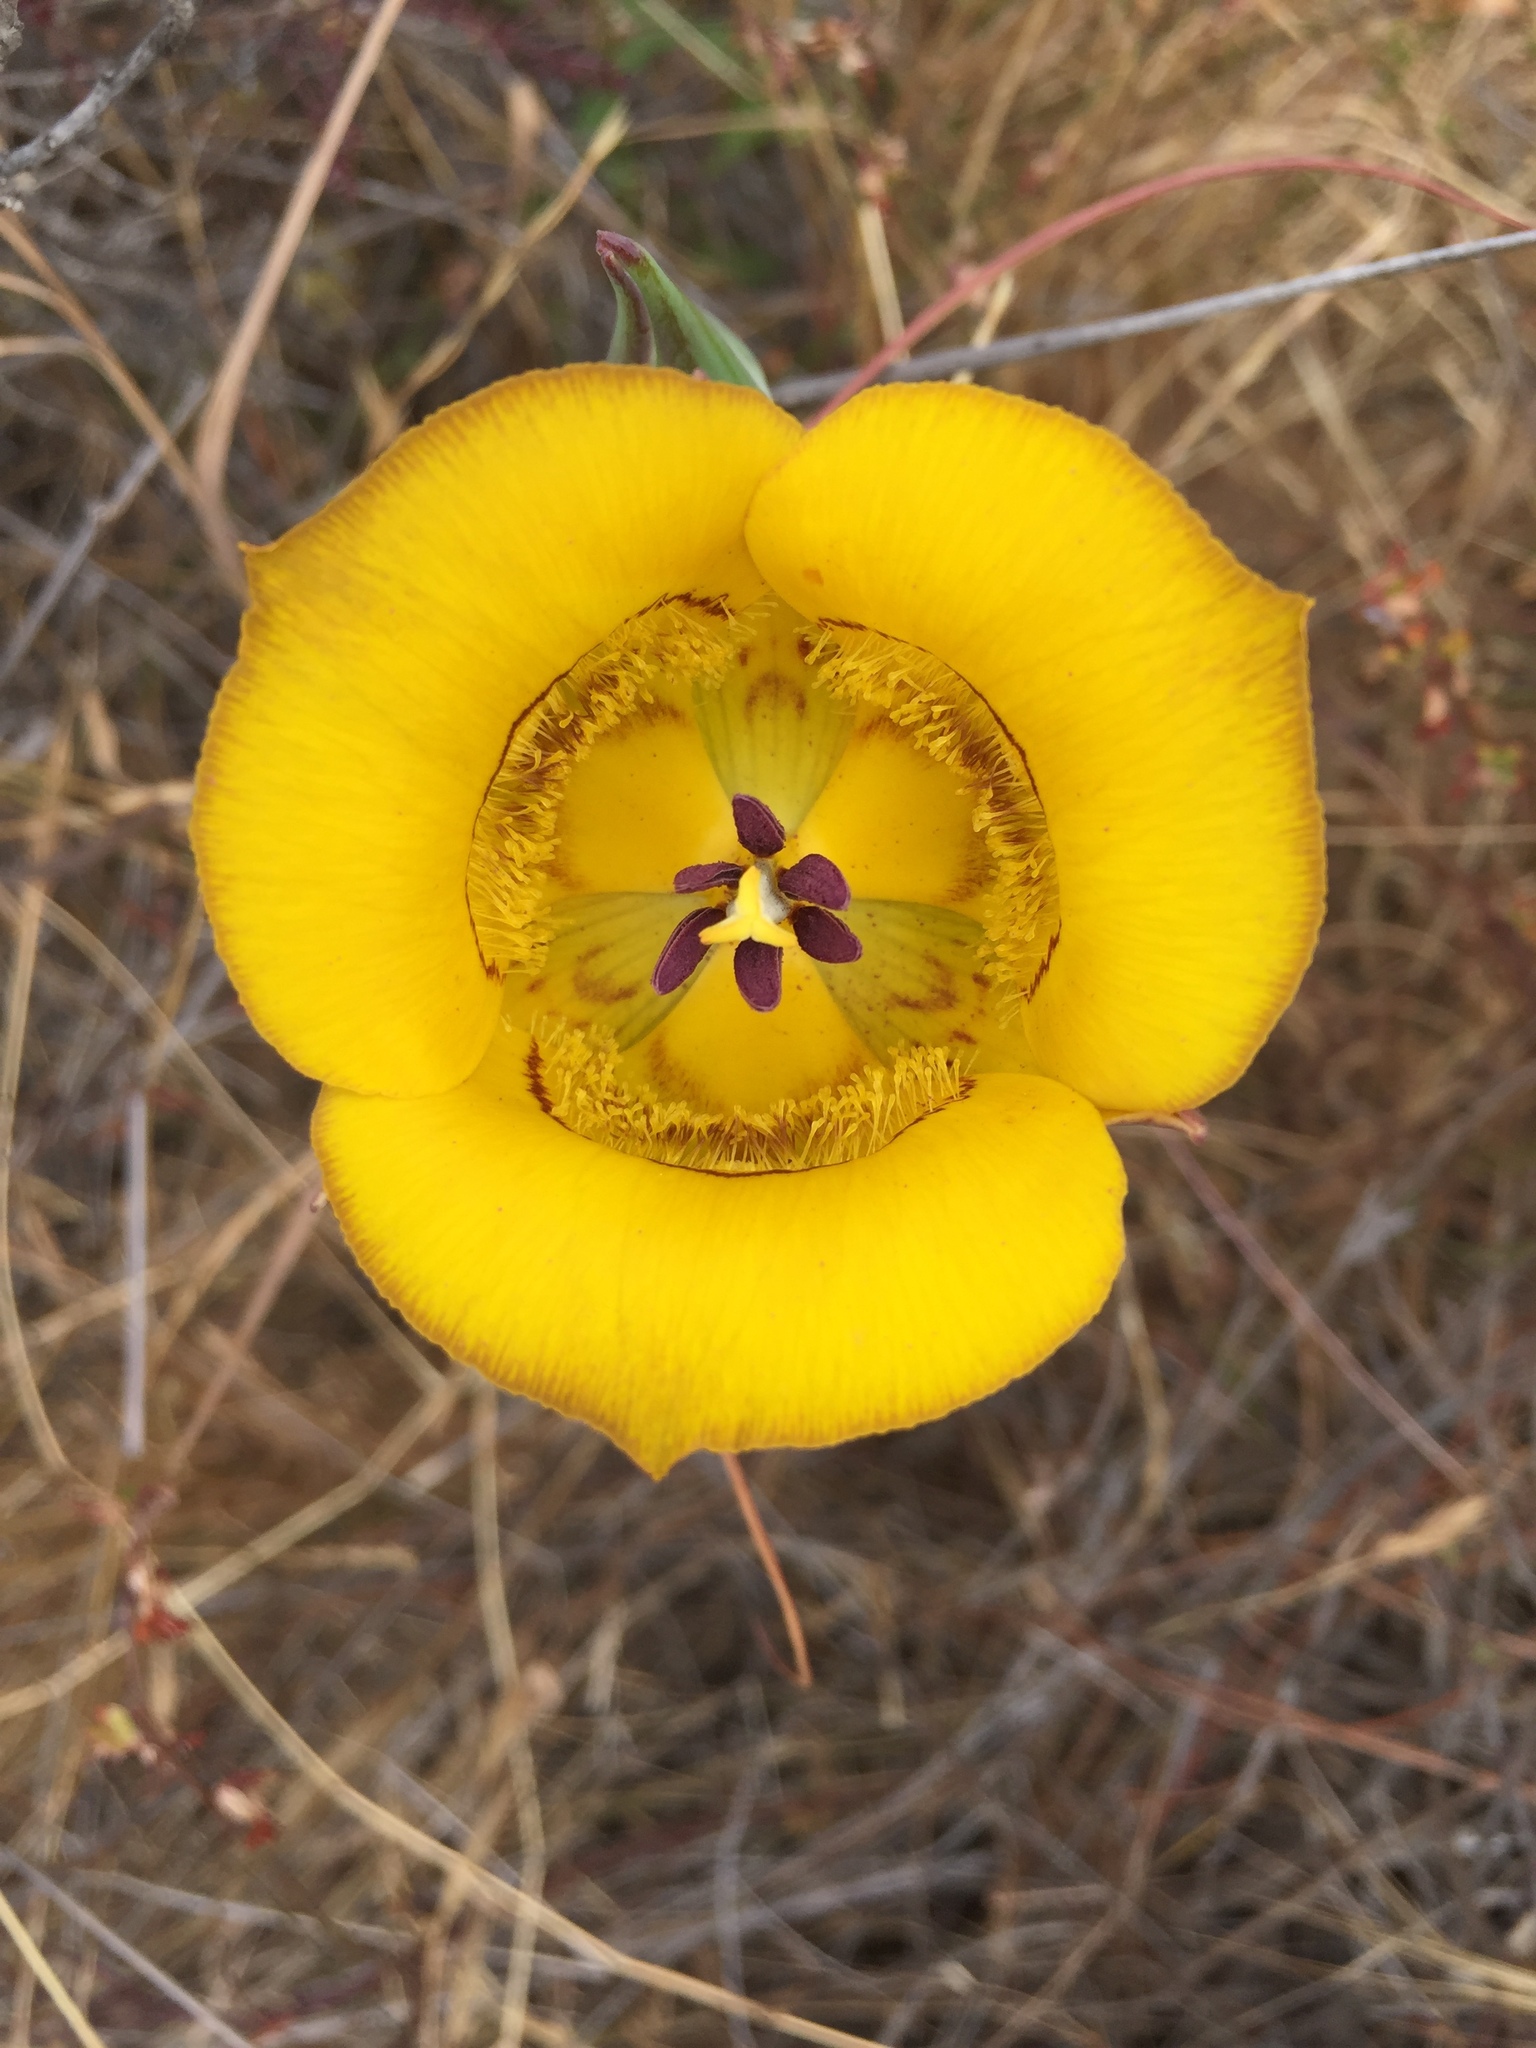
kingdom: Plantae
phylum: Tracheophyta
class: Liliopsida
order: Liliales
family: Liliaceae
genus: Calochortus
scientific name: Calochortus clavatus
